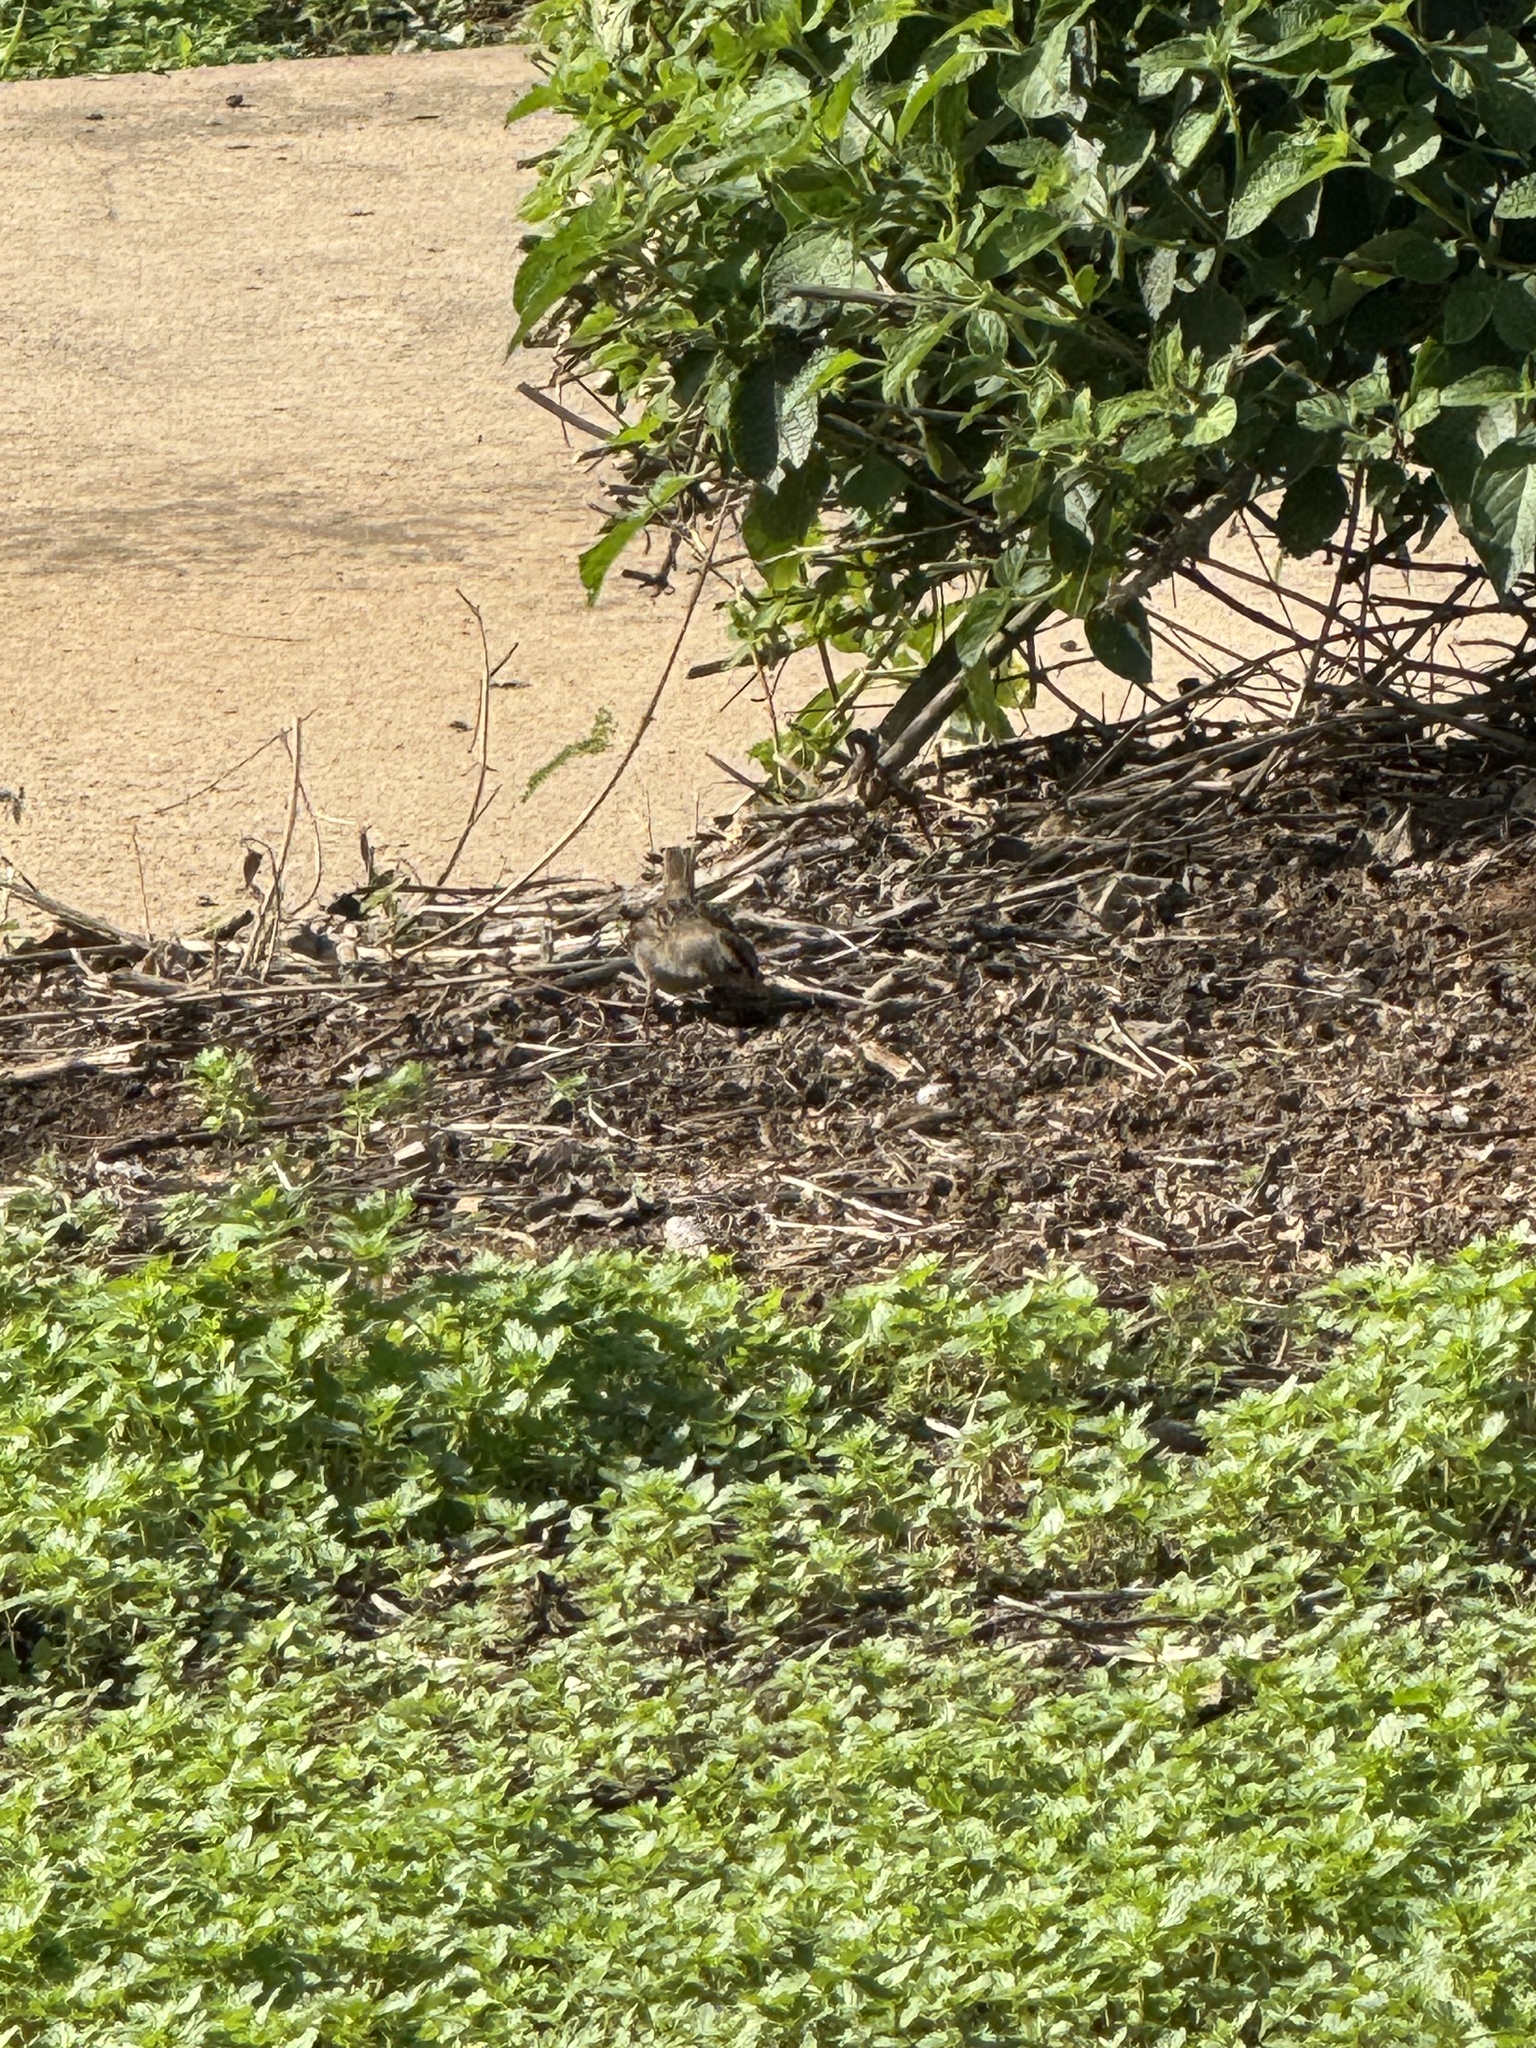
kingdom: Animalia
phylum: Chordata
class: Aves
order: Passeriformes
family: Passerellidae
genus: Zonotrichia
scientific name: Zonotrichia leucophrys
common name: White-crowned sparrow
